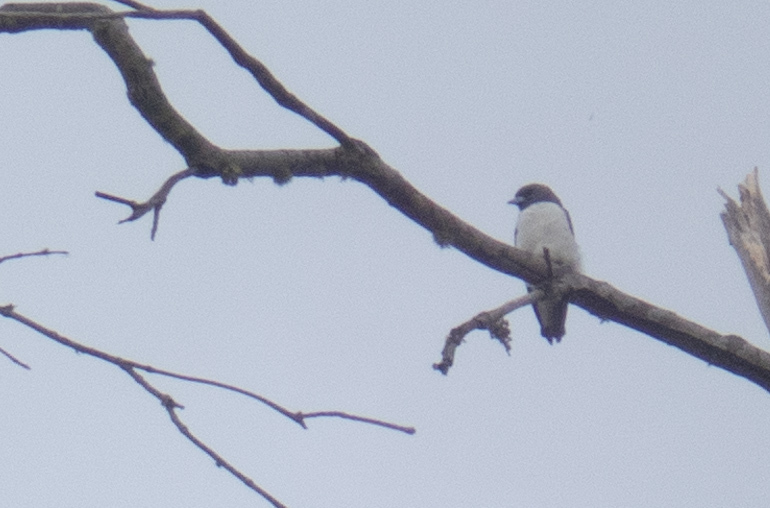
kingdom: Animalia
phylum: Chordata
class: Aves
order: Passeriformes
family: Artamidae
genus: Artamus
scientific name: Artamus leucoryn
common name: White-breasted woodswallow
